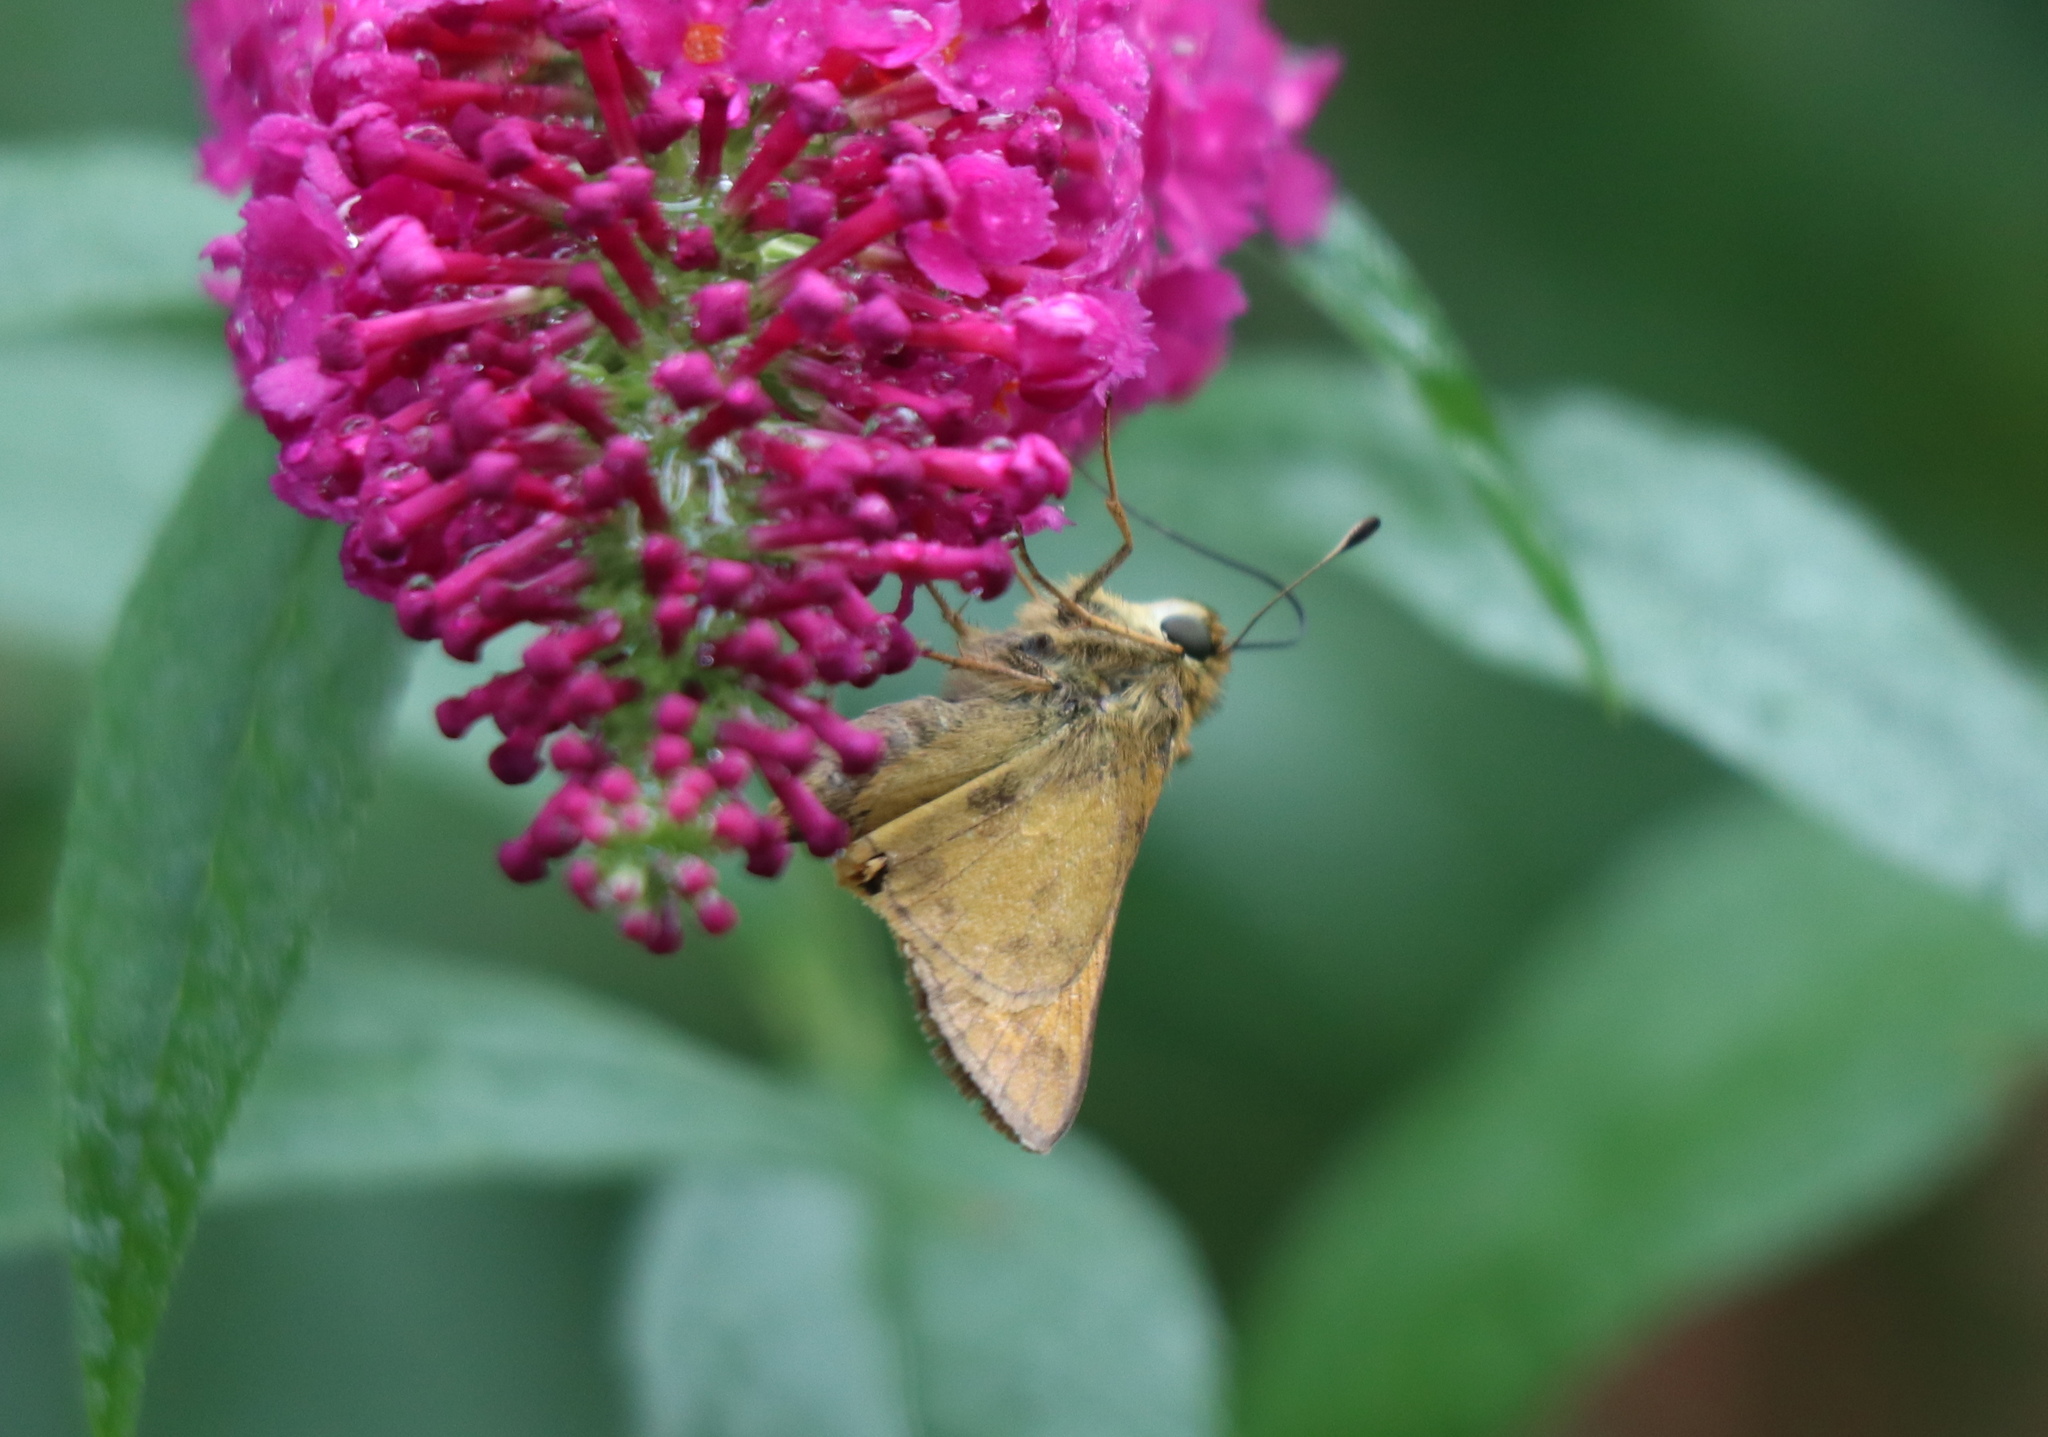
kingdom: Animalia
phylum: Arthropoda
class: Insecta
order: Lepidoptera
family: Hesperiidae
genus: Atalopedes
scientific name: Atalopedes
